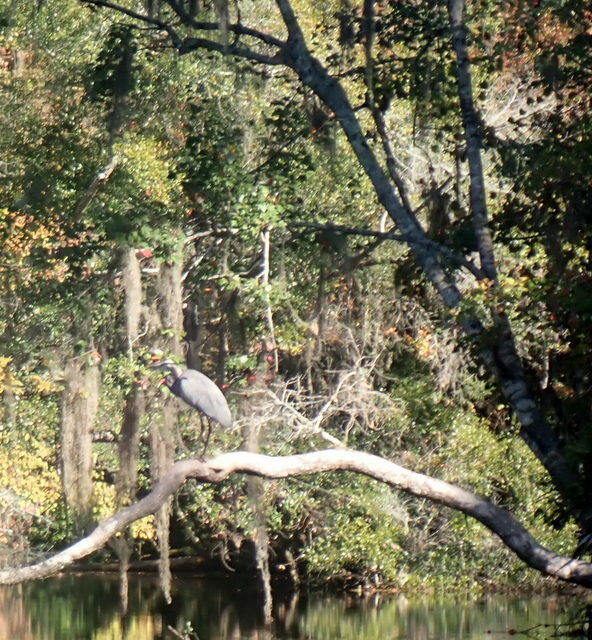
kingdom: Animalia
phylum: Chordata
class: Aves
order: Pelecaniformes
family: Ardeidae
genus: Ardea
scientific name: Ardea herodias
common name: Great blue heron
